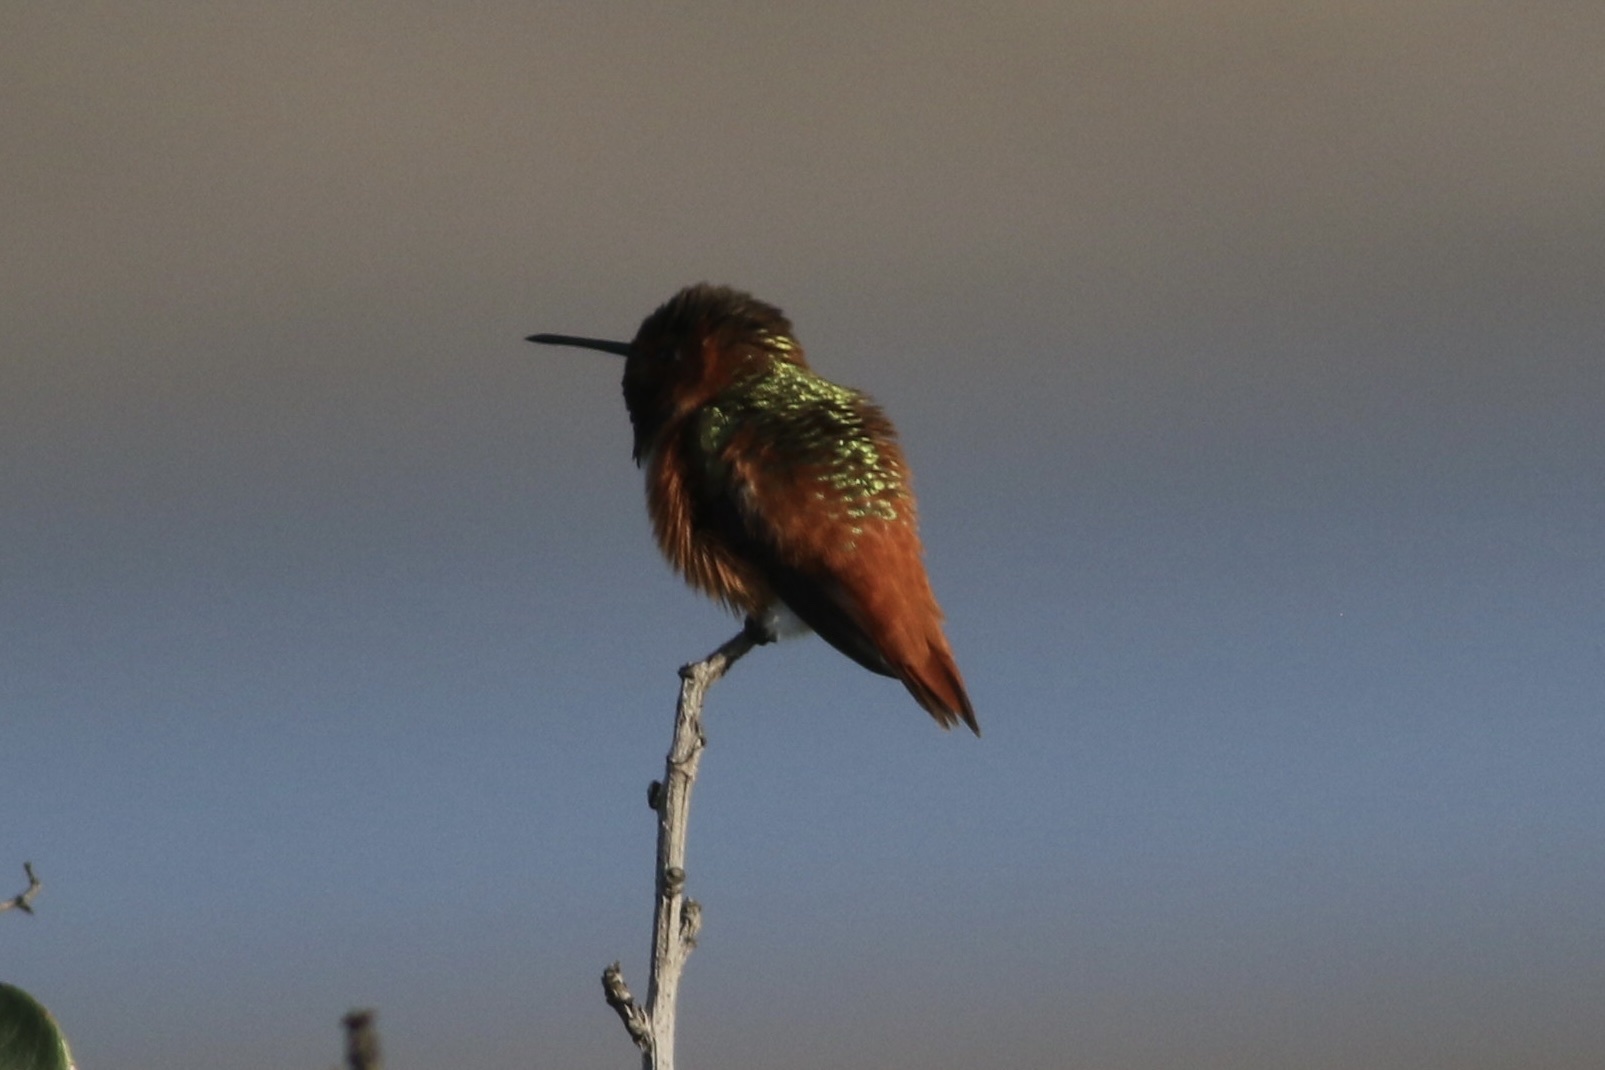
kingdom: Animalia
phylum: Chordata
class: Aves
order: Apodiformes
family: Trochilidae
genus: Selasphorus
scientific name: Selasphorus sasin
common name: Allen's hummingbird
